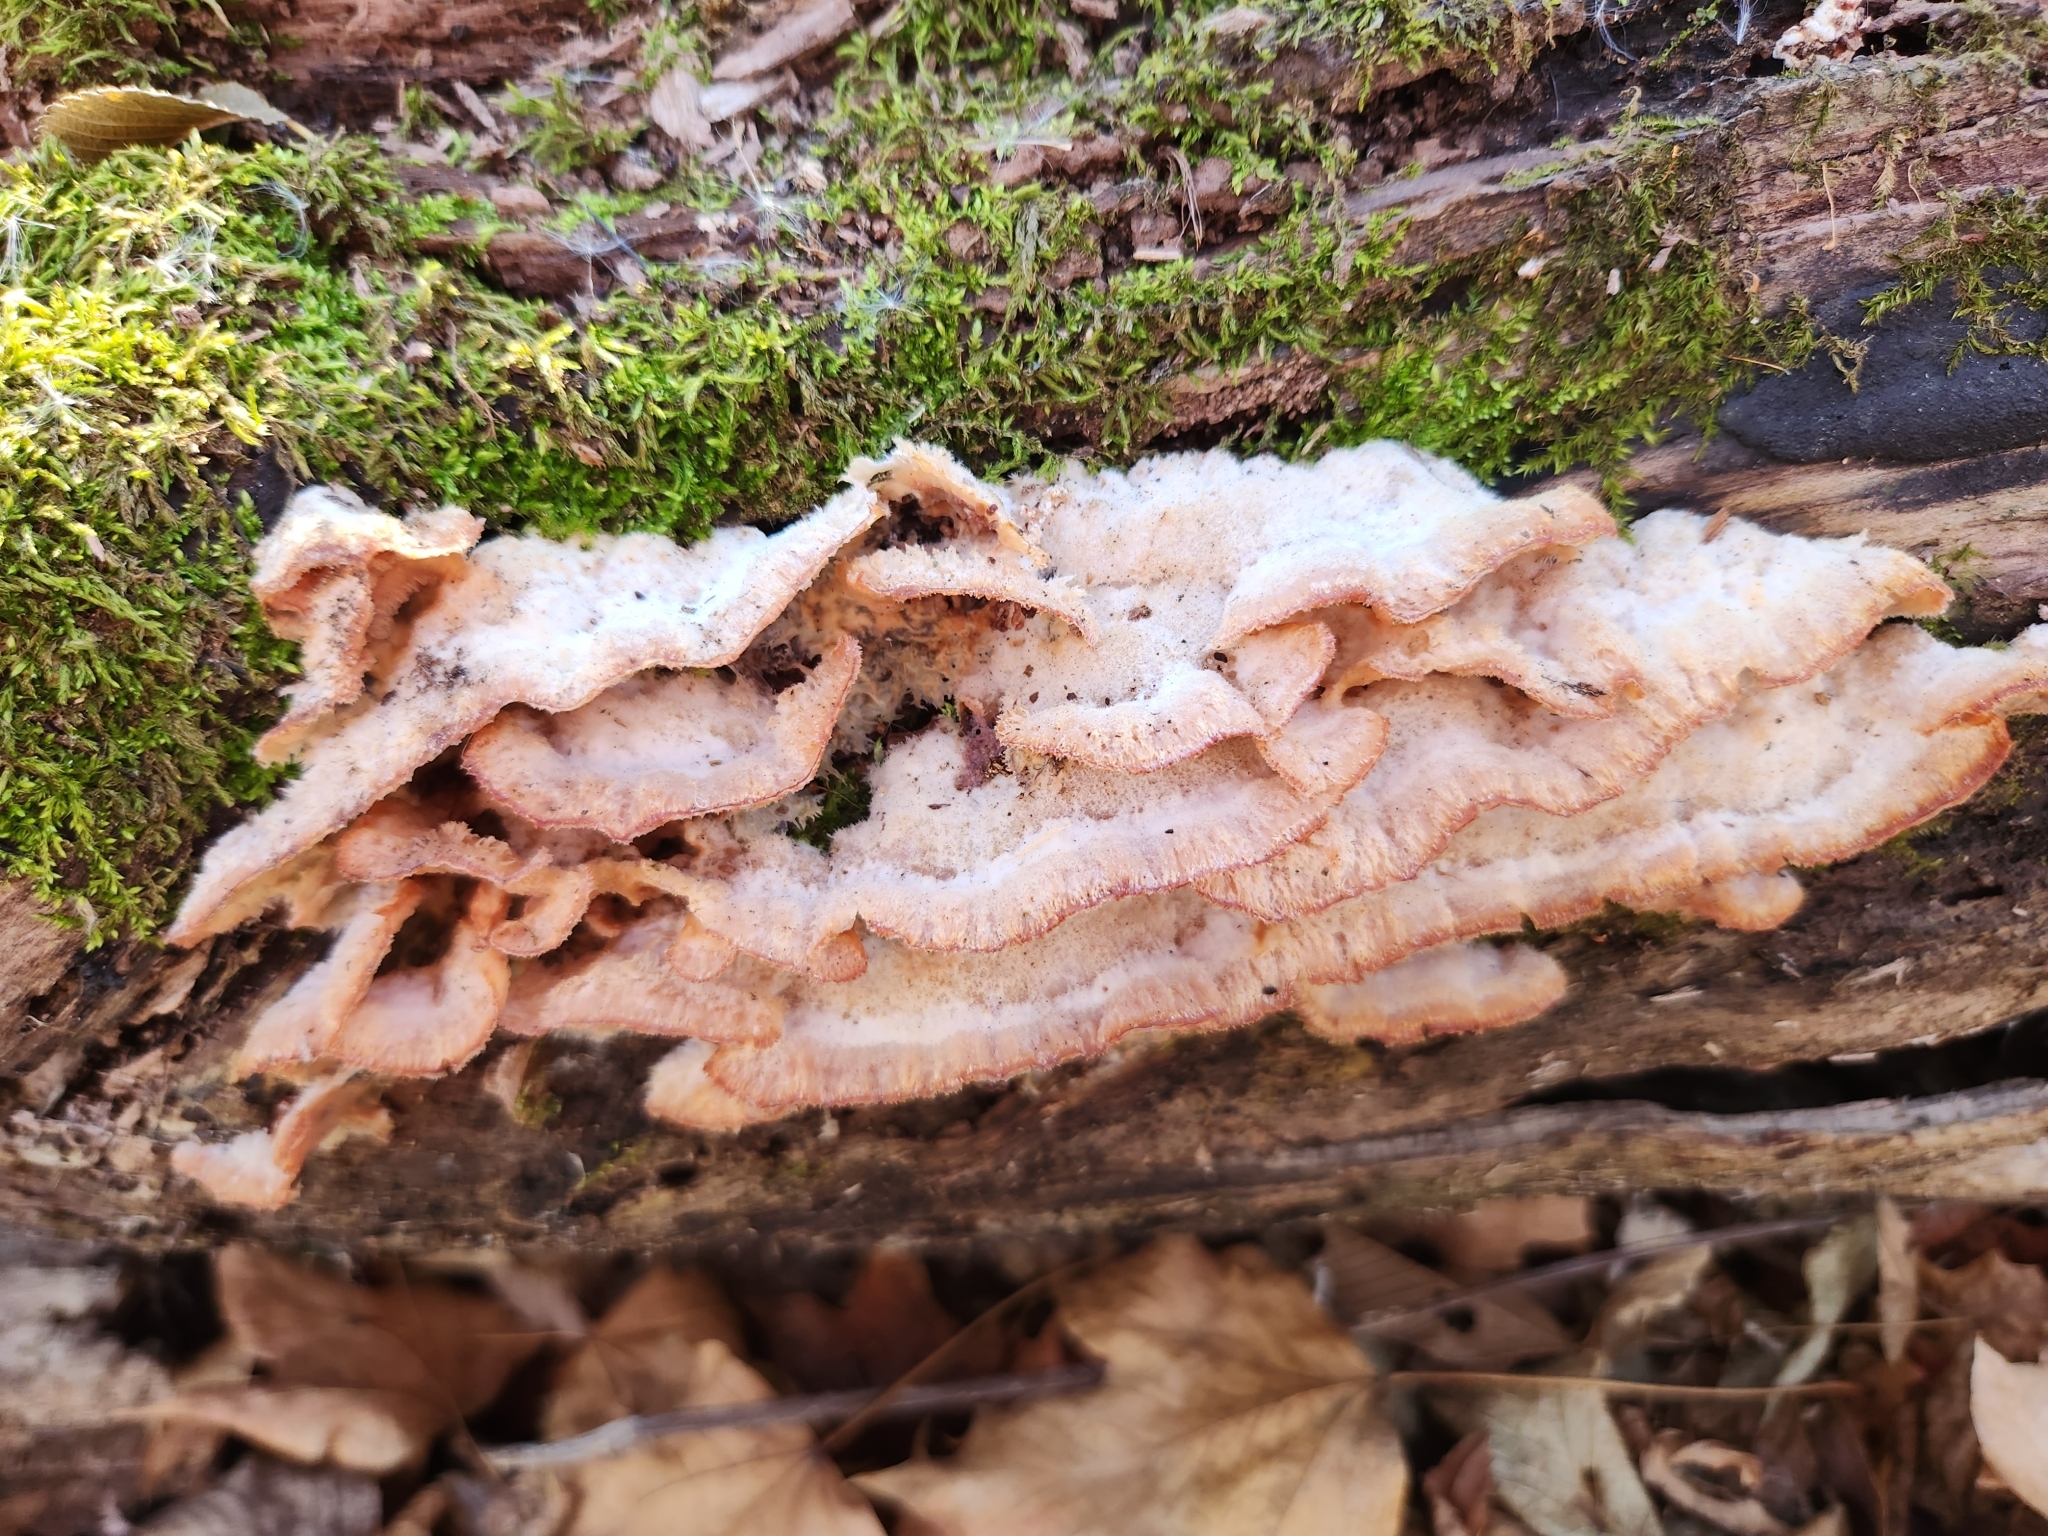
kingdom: Fungi
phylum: Basidiomycota
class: Agaricomycetes
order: Polyporales
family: Meruliaceae
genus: Phlebia
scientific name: Phlebia tremellosa
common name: Jelly rot
